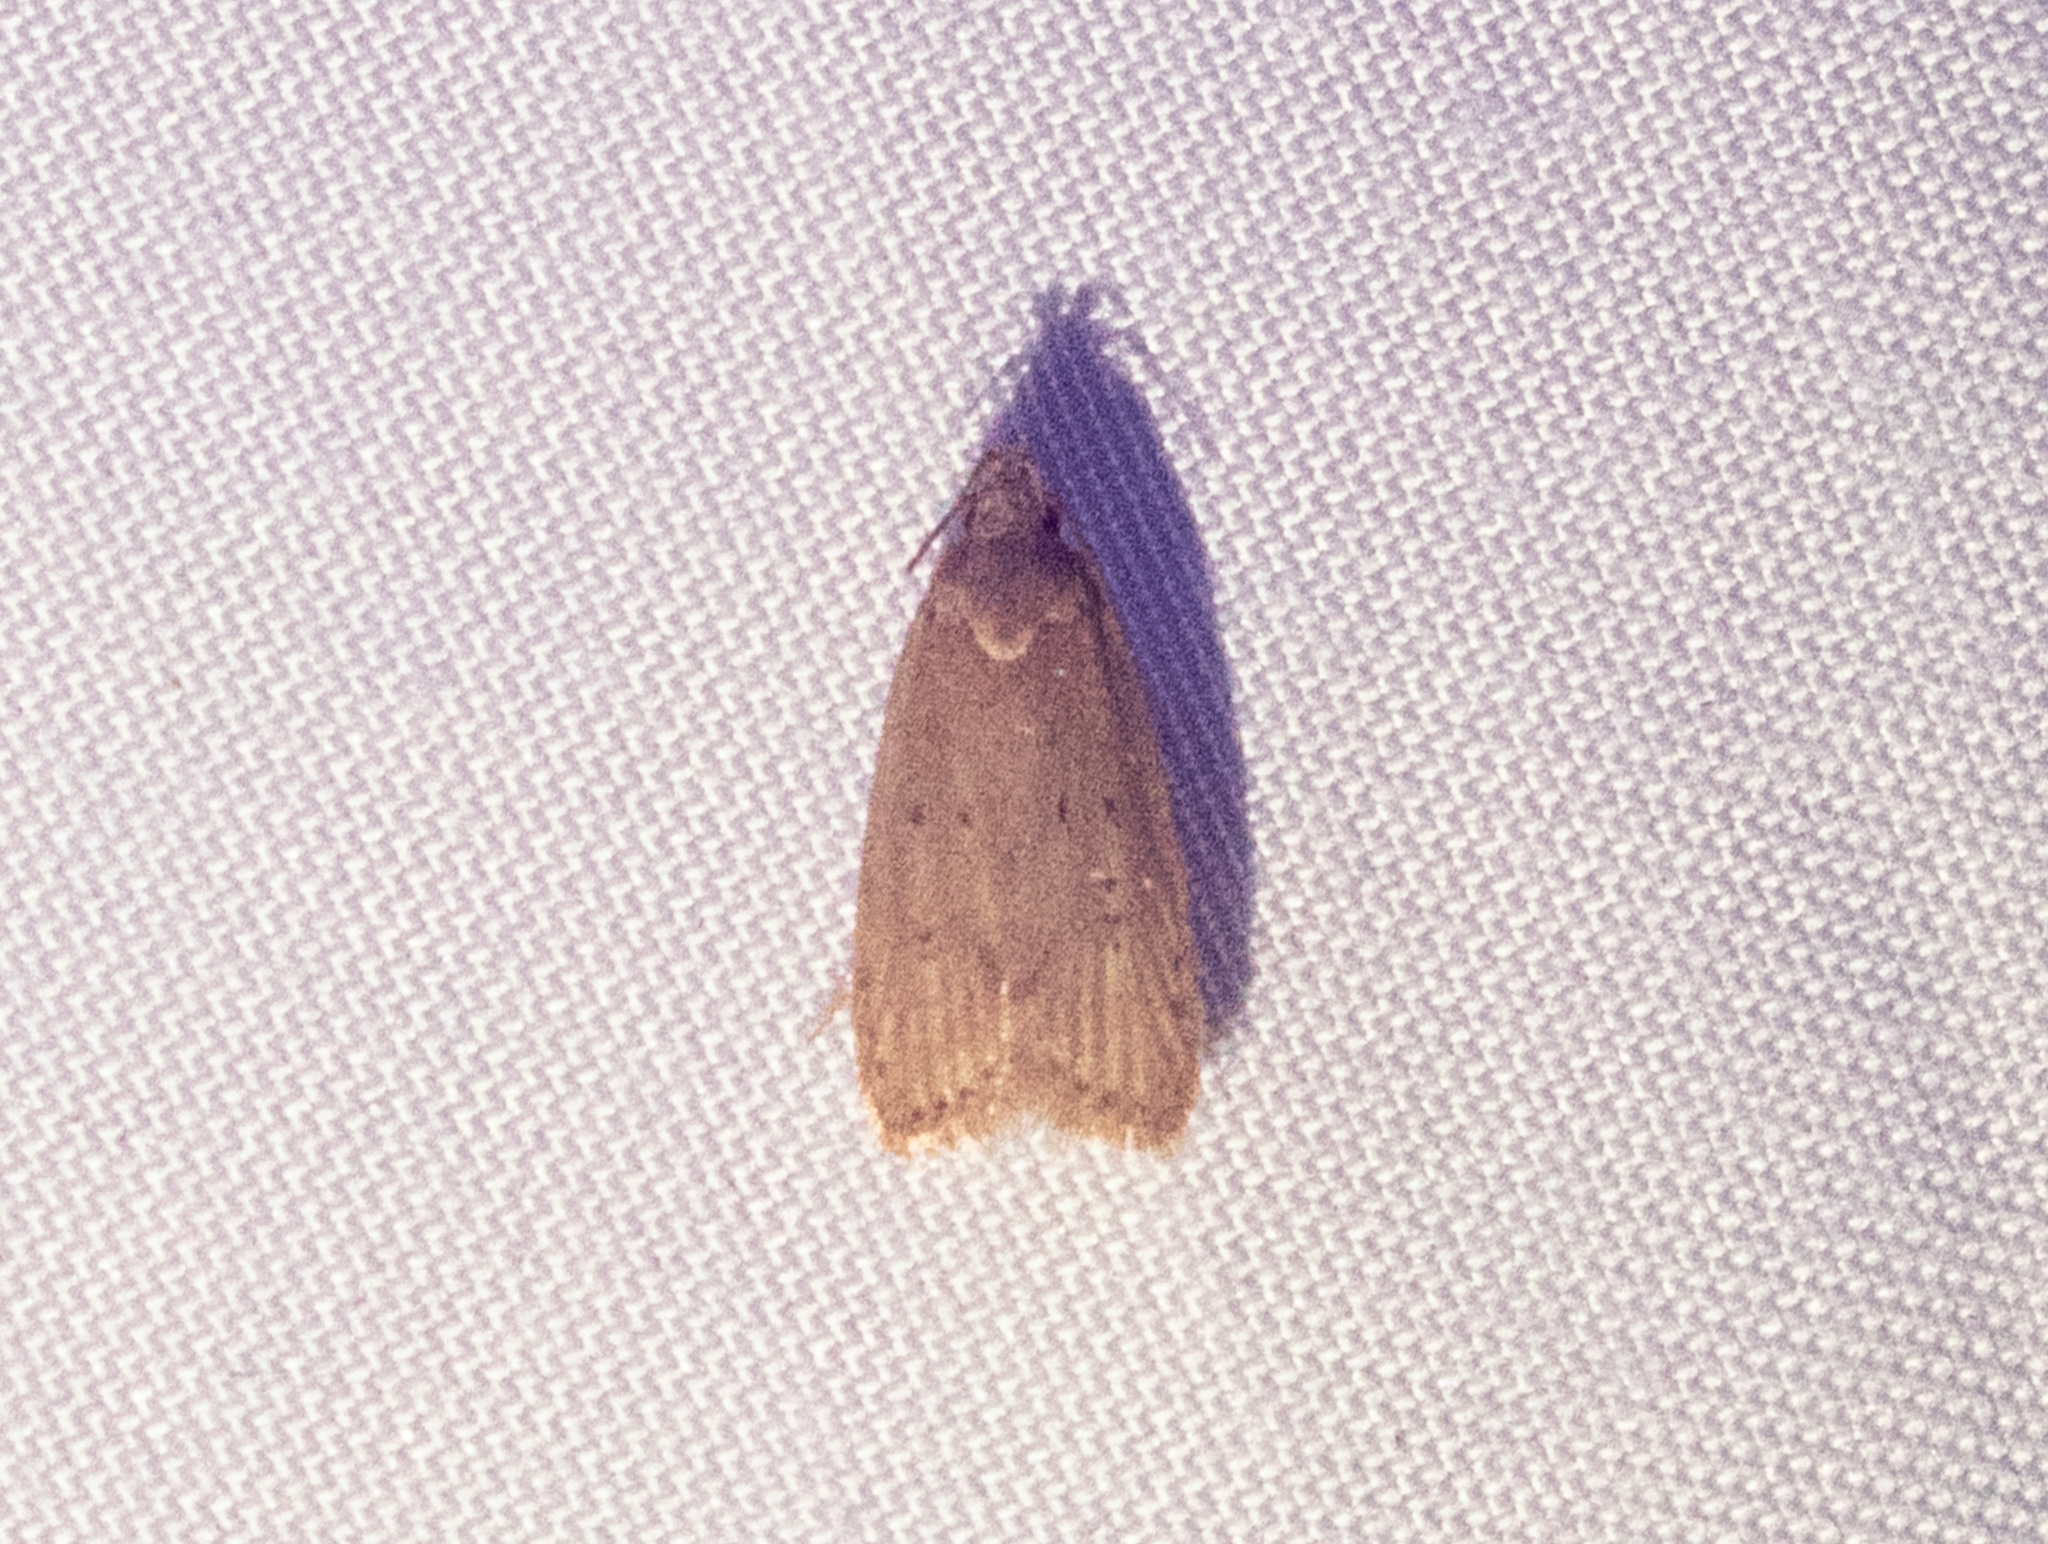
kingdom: Animalia
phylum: Arthropoda
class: Insecta
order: Lepidoptera
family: Autostichidae
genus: Autosticha
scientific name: Autosticha kyotensis
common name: Kyoto moth
